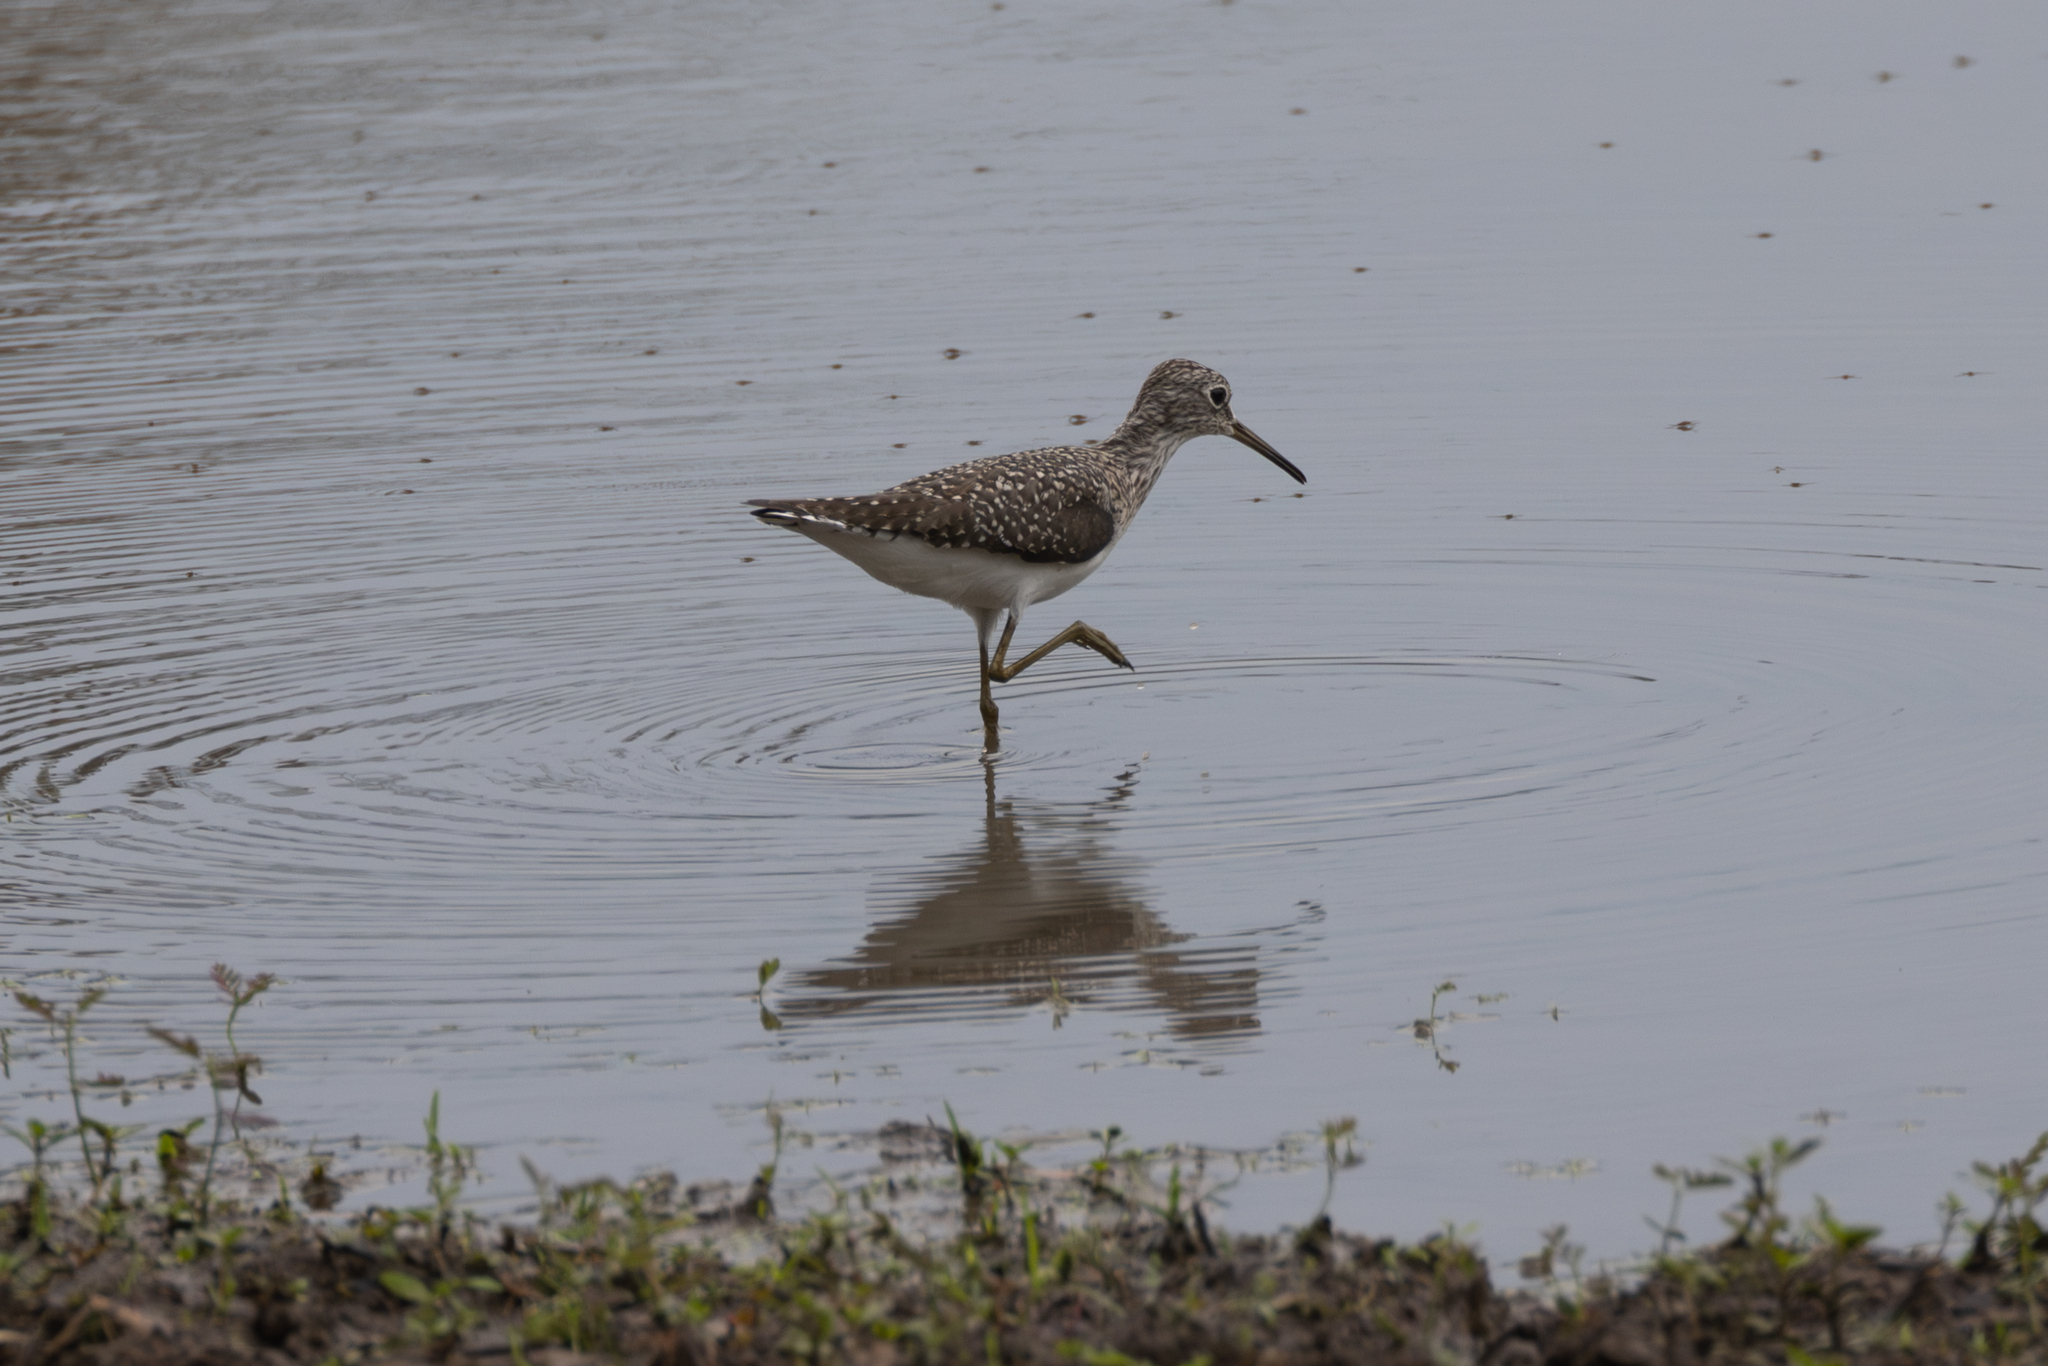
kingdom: Animalia
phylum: Chordata
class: Aves
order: Charadriiformes
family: Scolopacidae
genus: Tringa
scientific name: Tringa solitaria
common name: Solitary sandpiper
